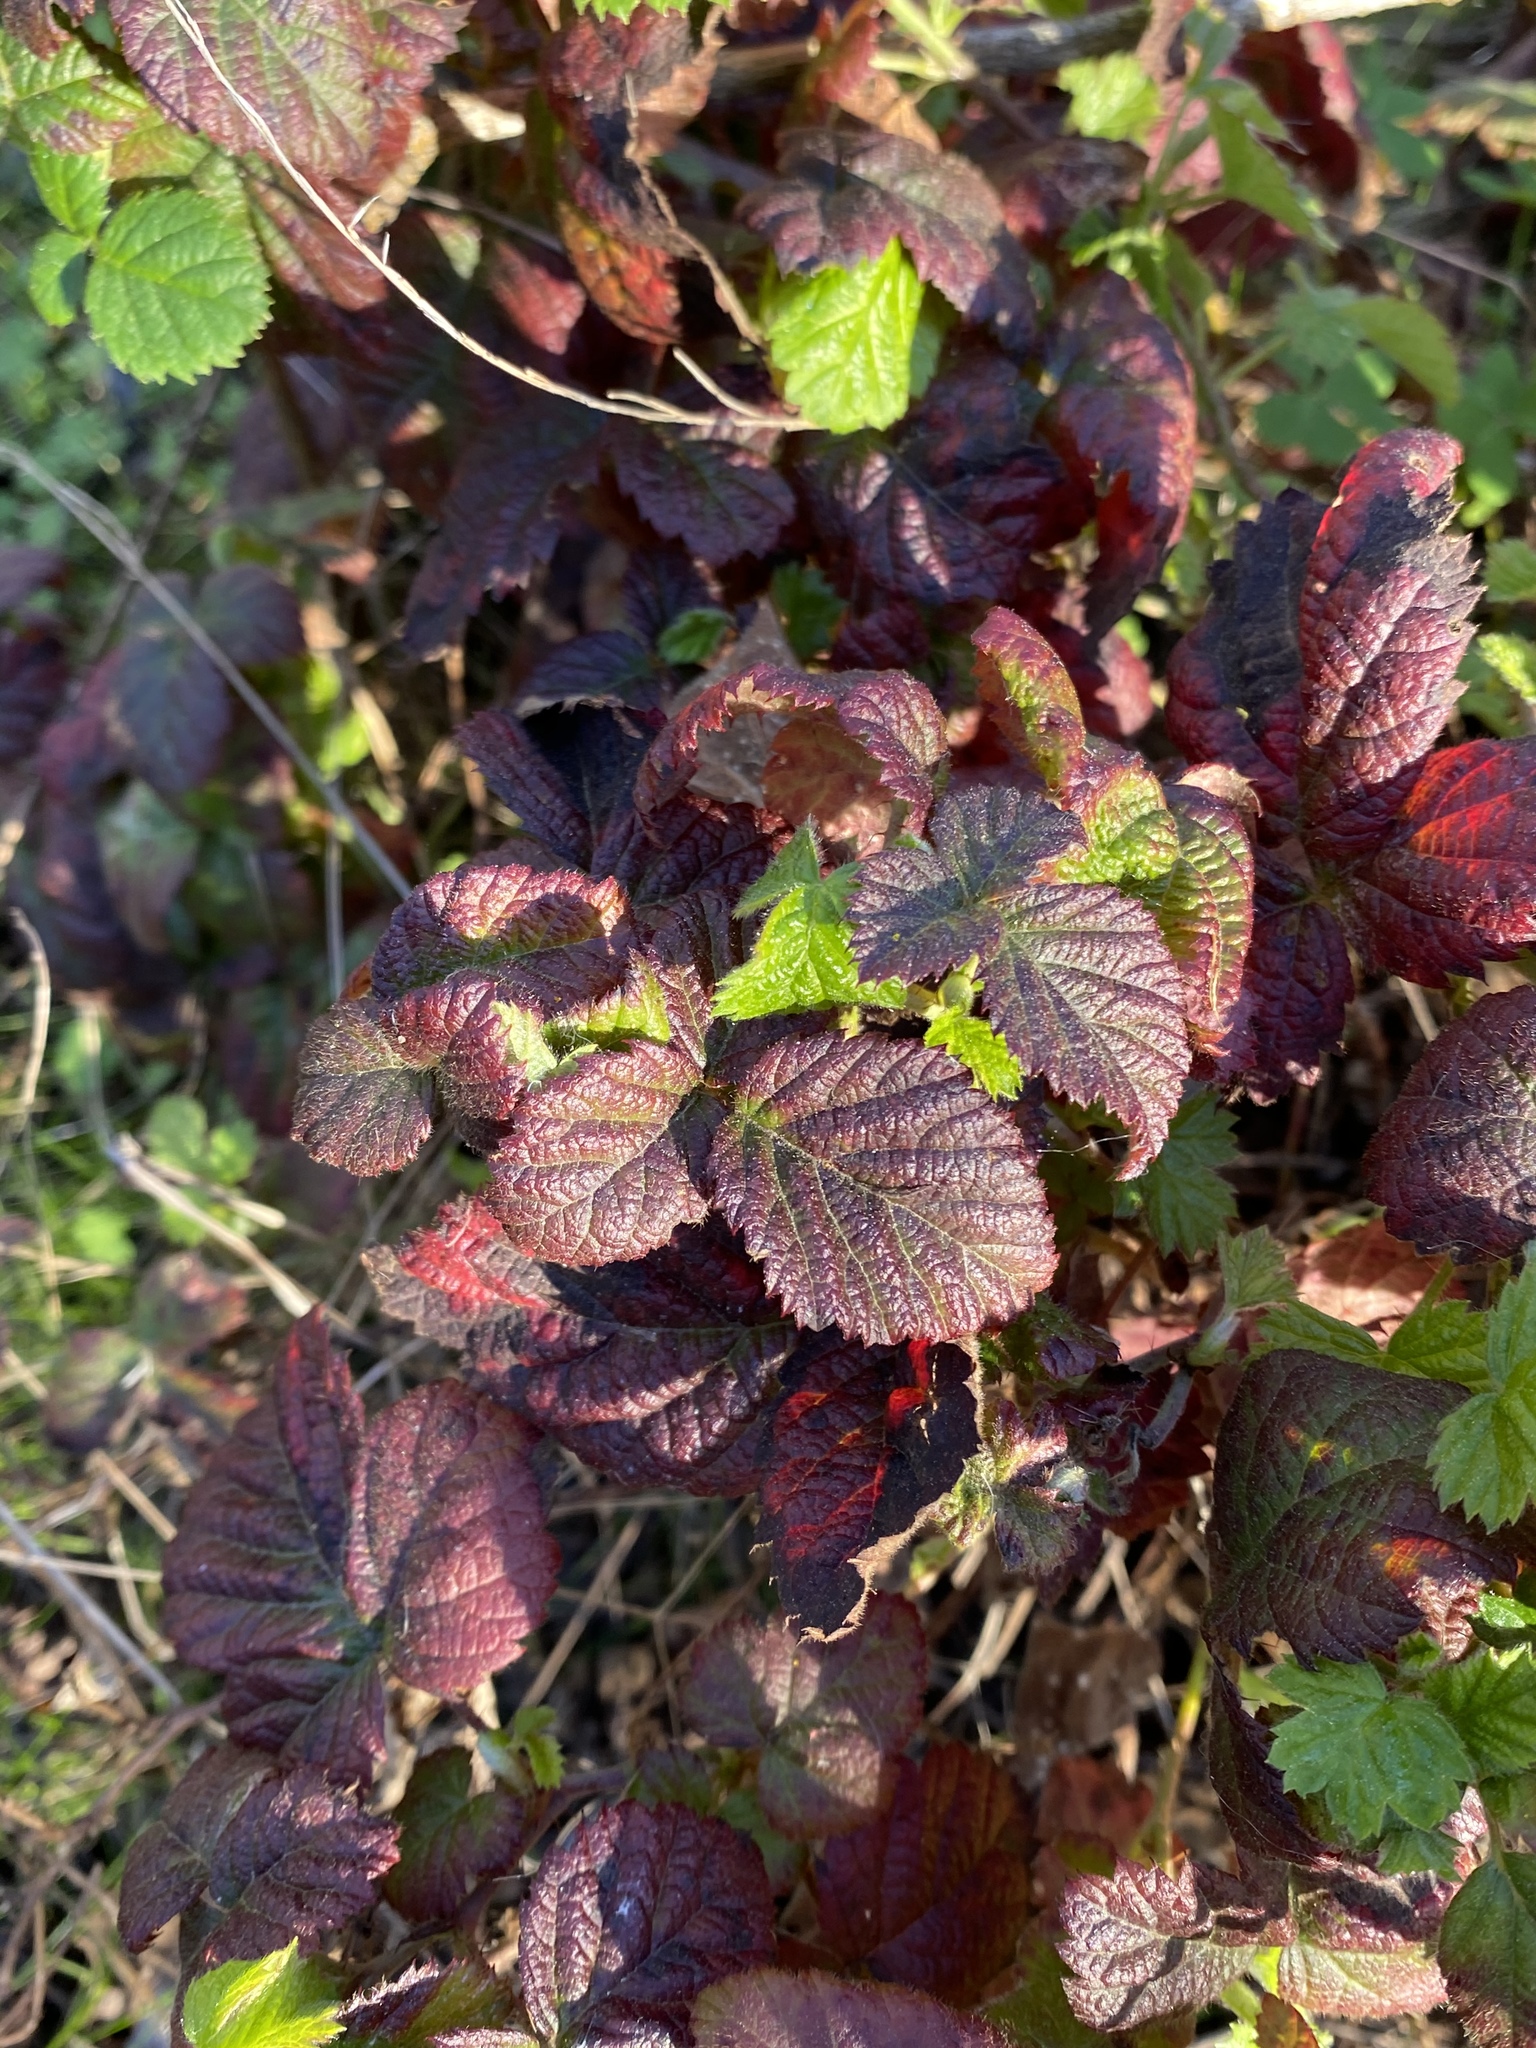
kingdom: Plantae
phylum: Tracheophyta
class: Magnoliopsida
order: Rosales
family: Rosaceae
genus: Rubus
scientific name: Rubus ursinus
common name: Pacific blackberry
